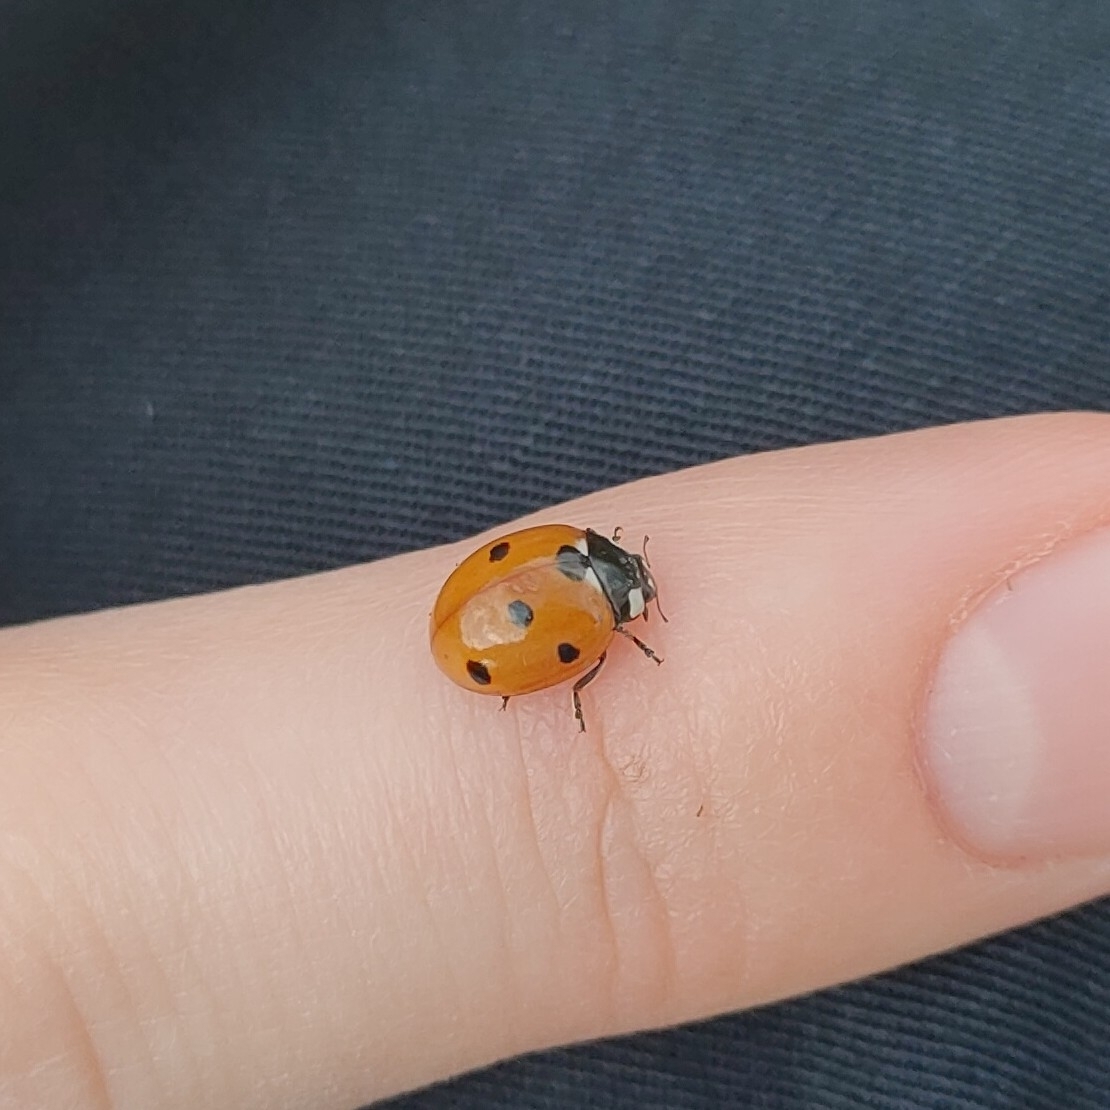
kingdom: Animalia
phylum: Arthropoda
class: Insecta
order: Coleoptera
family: Coccinellidae
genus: Coccinella
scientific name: Coccinella septempunctata
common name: Sevenspotted lady beetle
